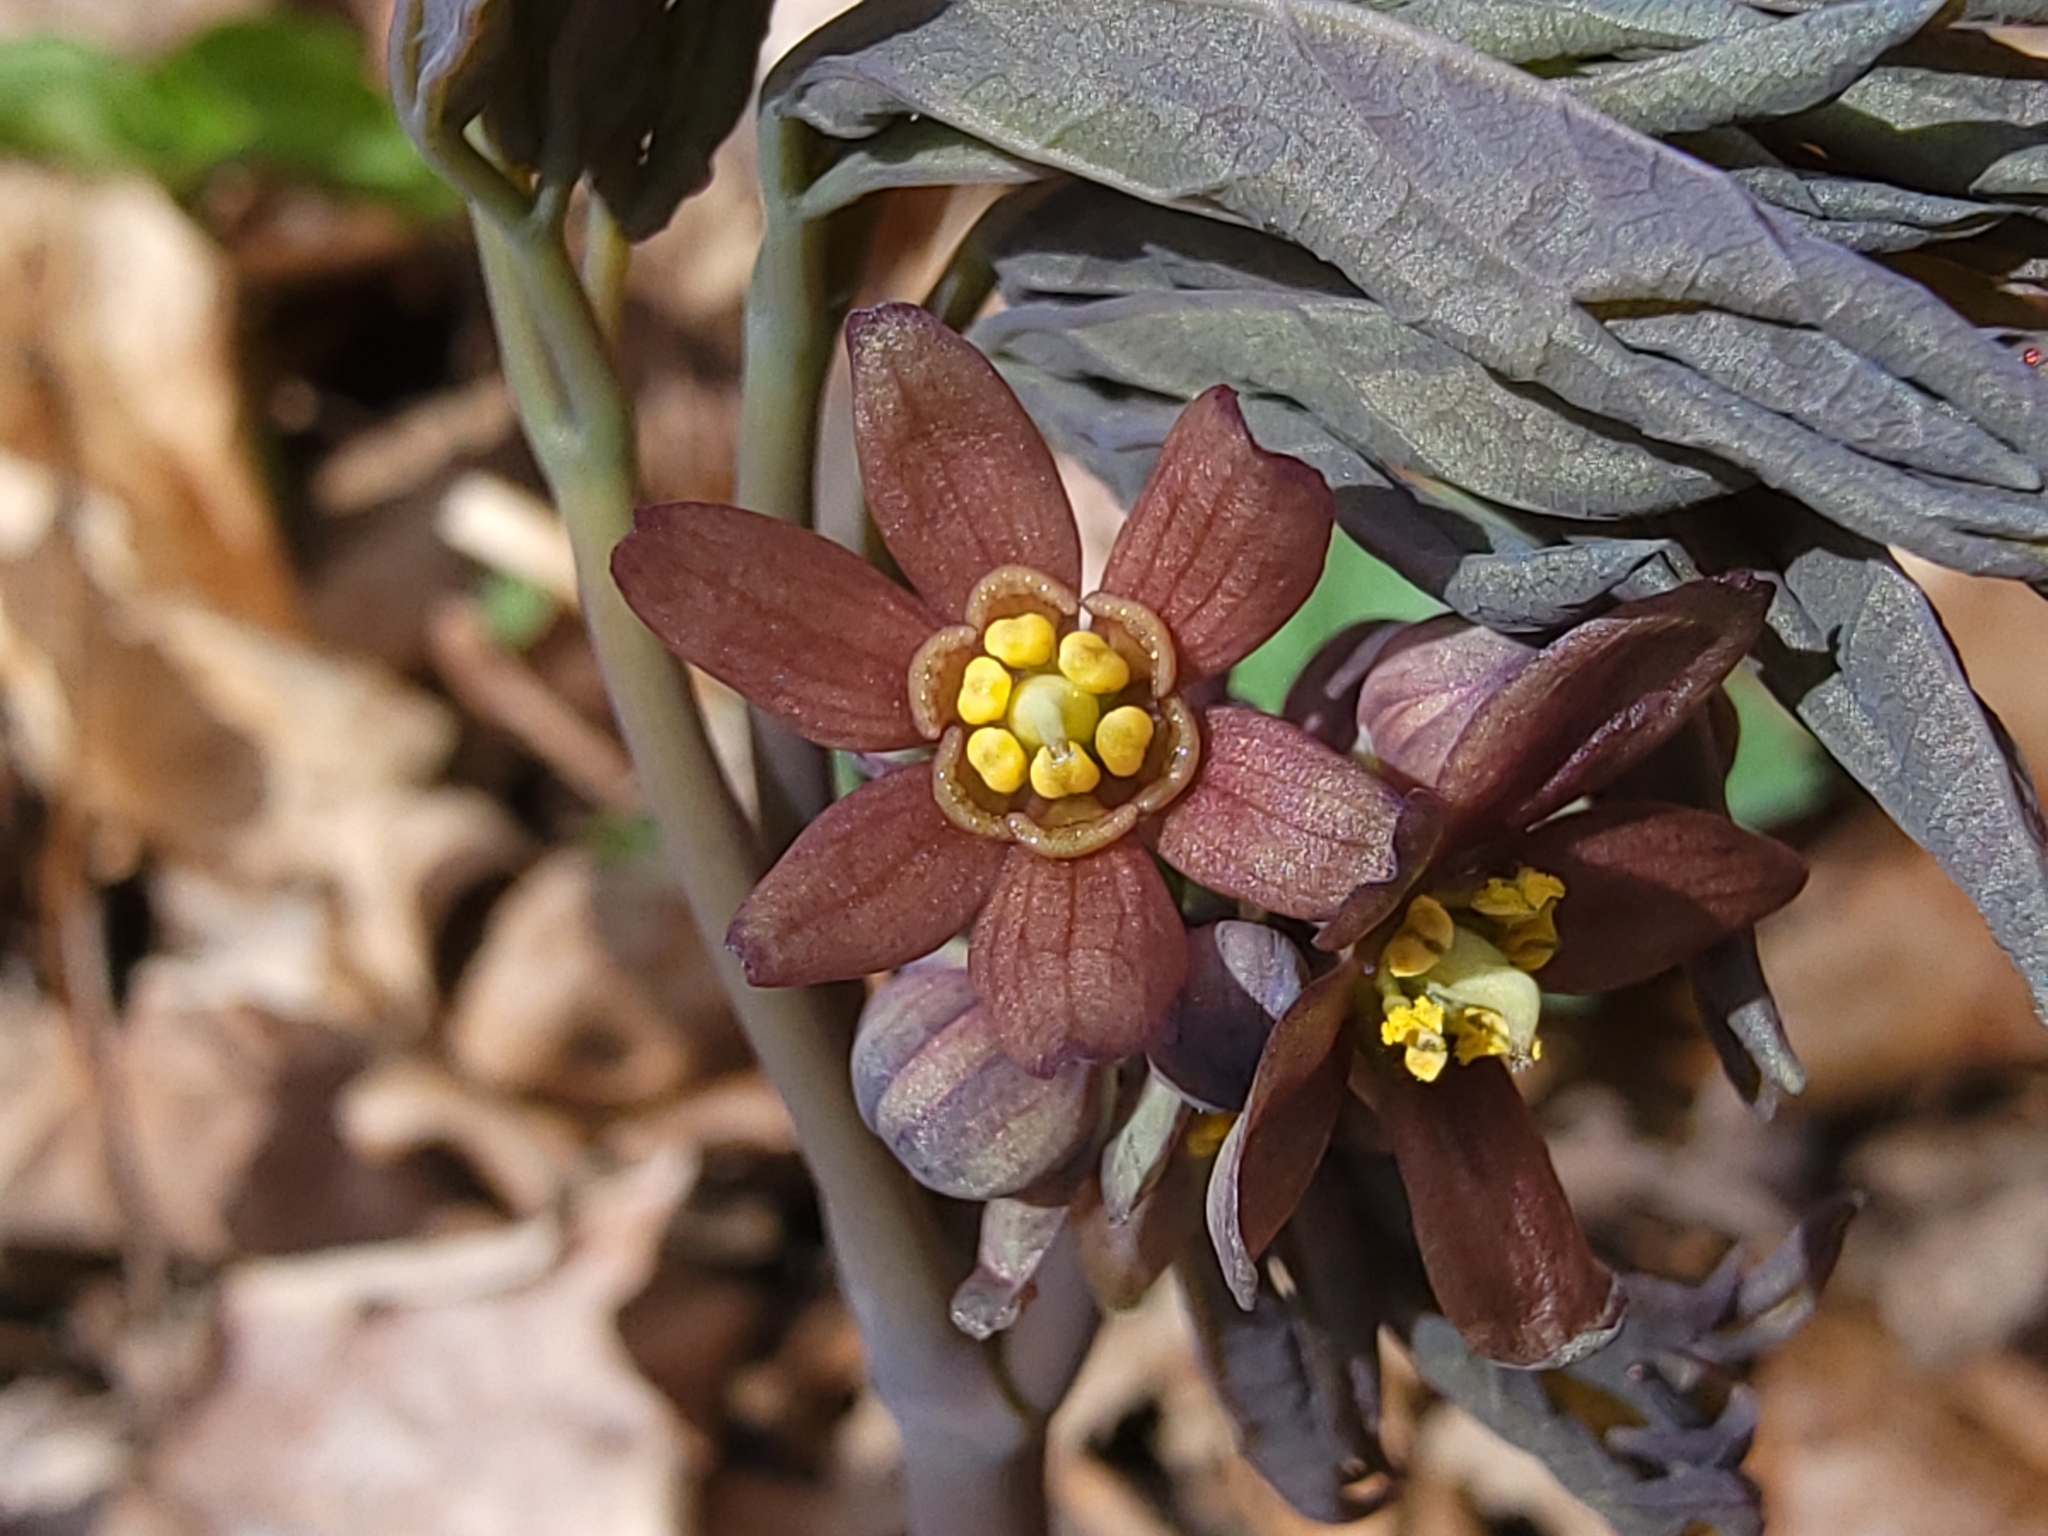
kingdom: Plantae
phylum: Tracheophyta
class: Magnoliopsida
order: Ranunculales
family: Berberidaceae
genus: Caulophyllum
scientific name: Caulophyllum giganteum
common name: Blue cohosh
